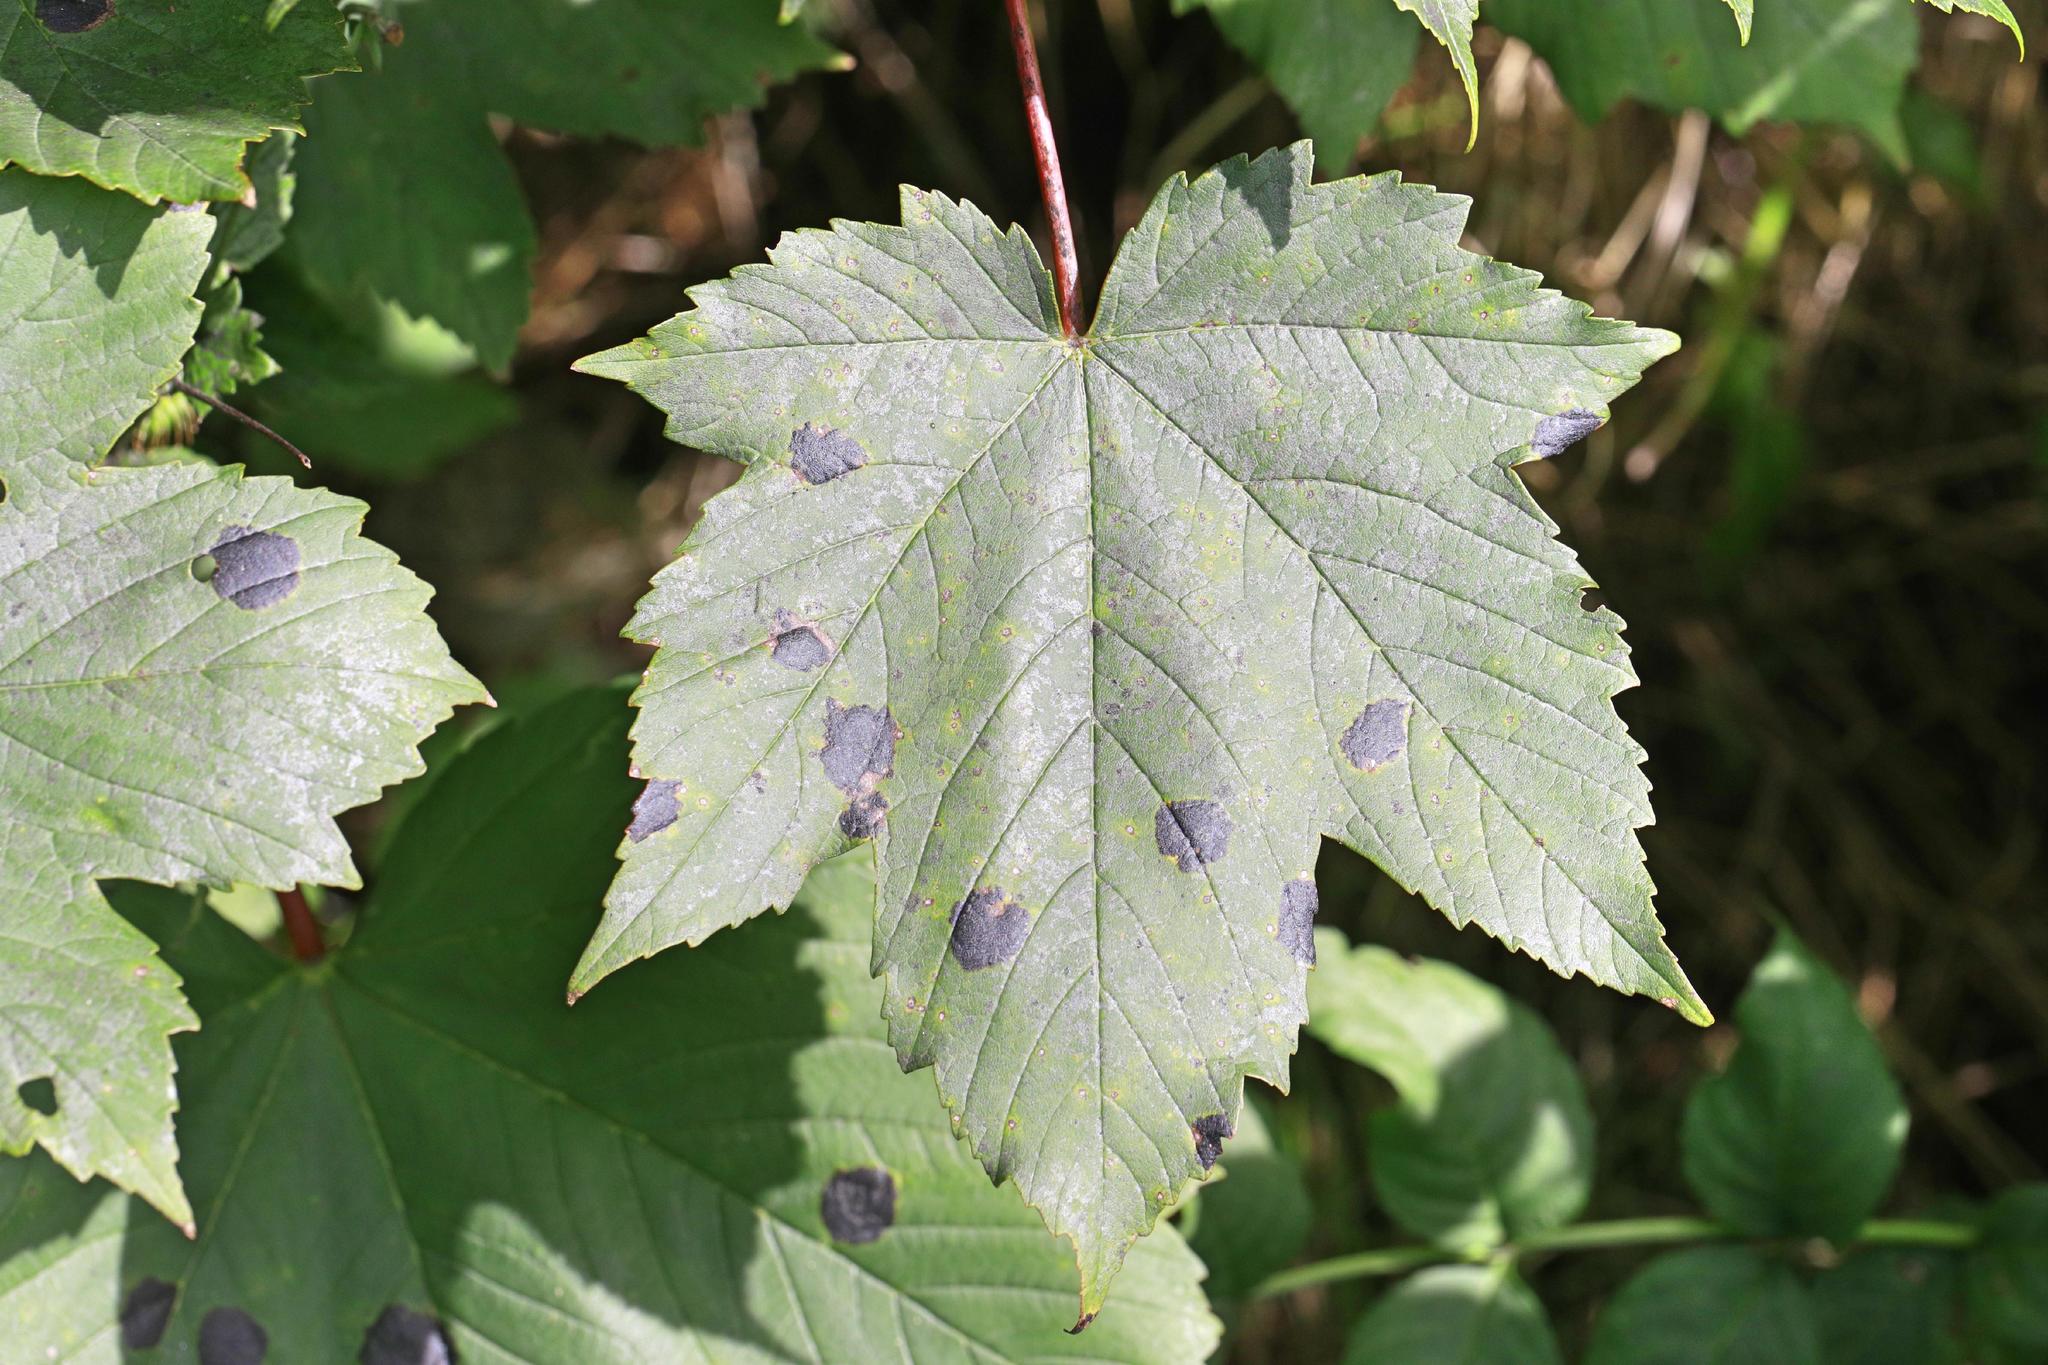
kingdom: Fungi
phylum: Ascomycota
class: Leotiomycetes
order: Rhytismatales
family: Rhytismataceae
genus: Rhytisma
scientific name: Rhytisma acerinum
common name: European tar spot
